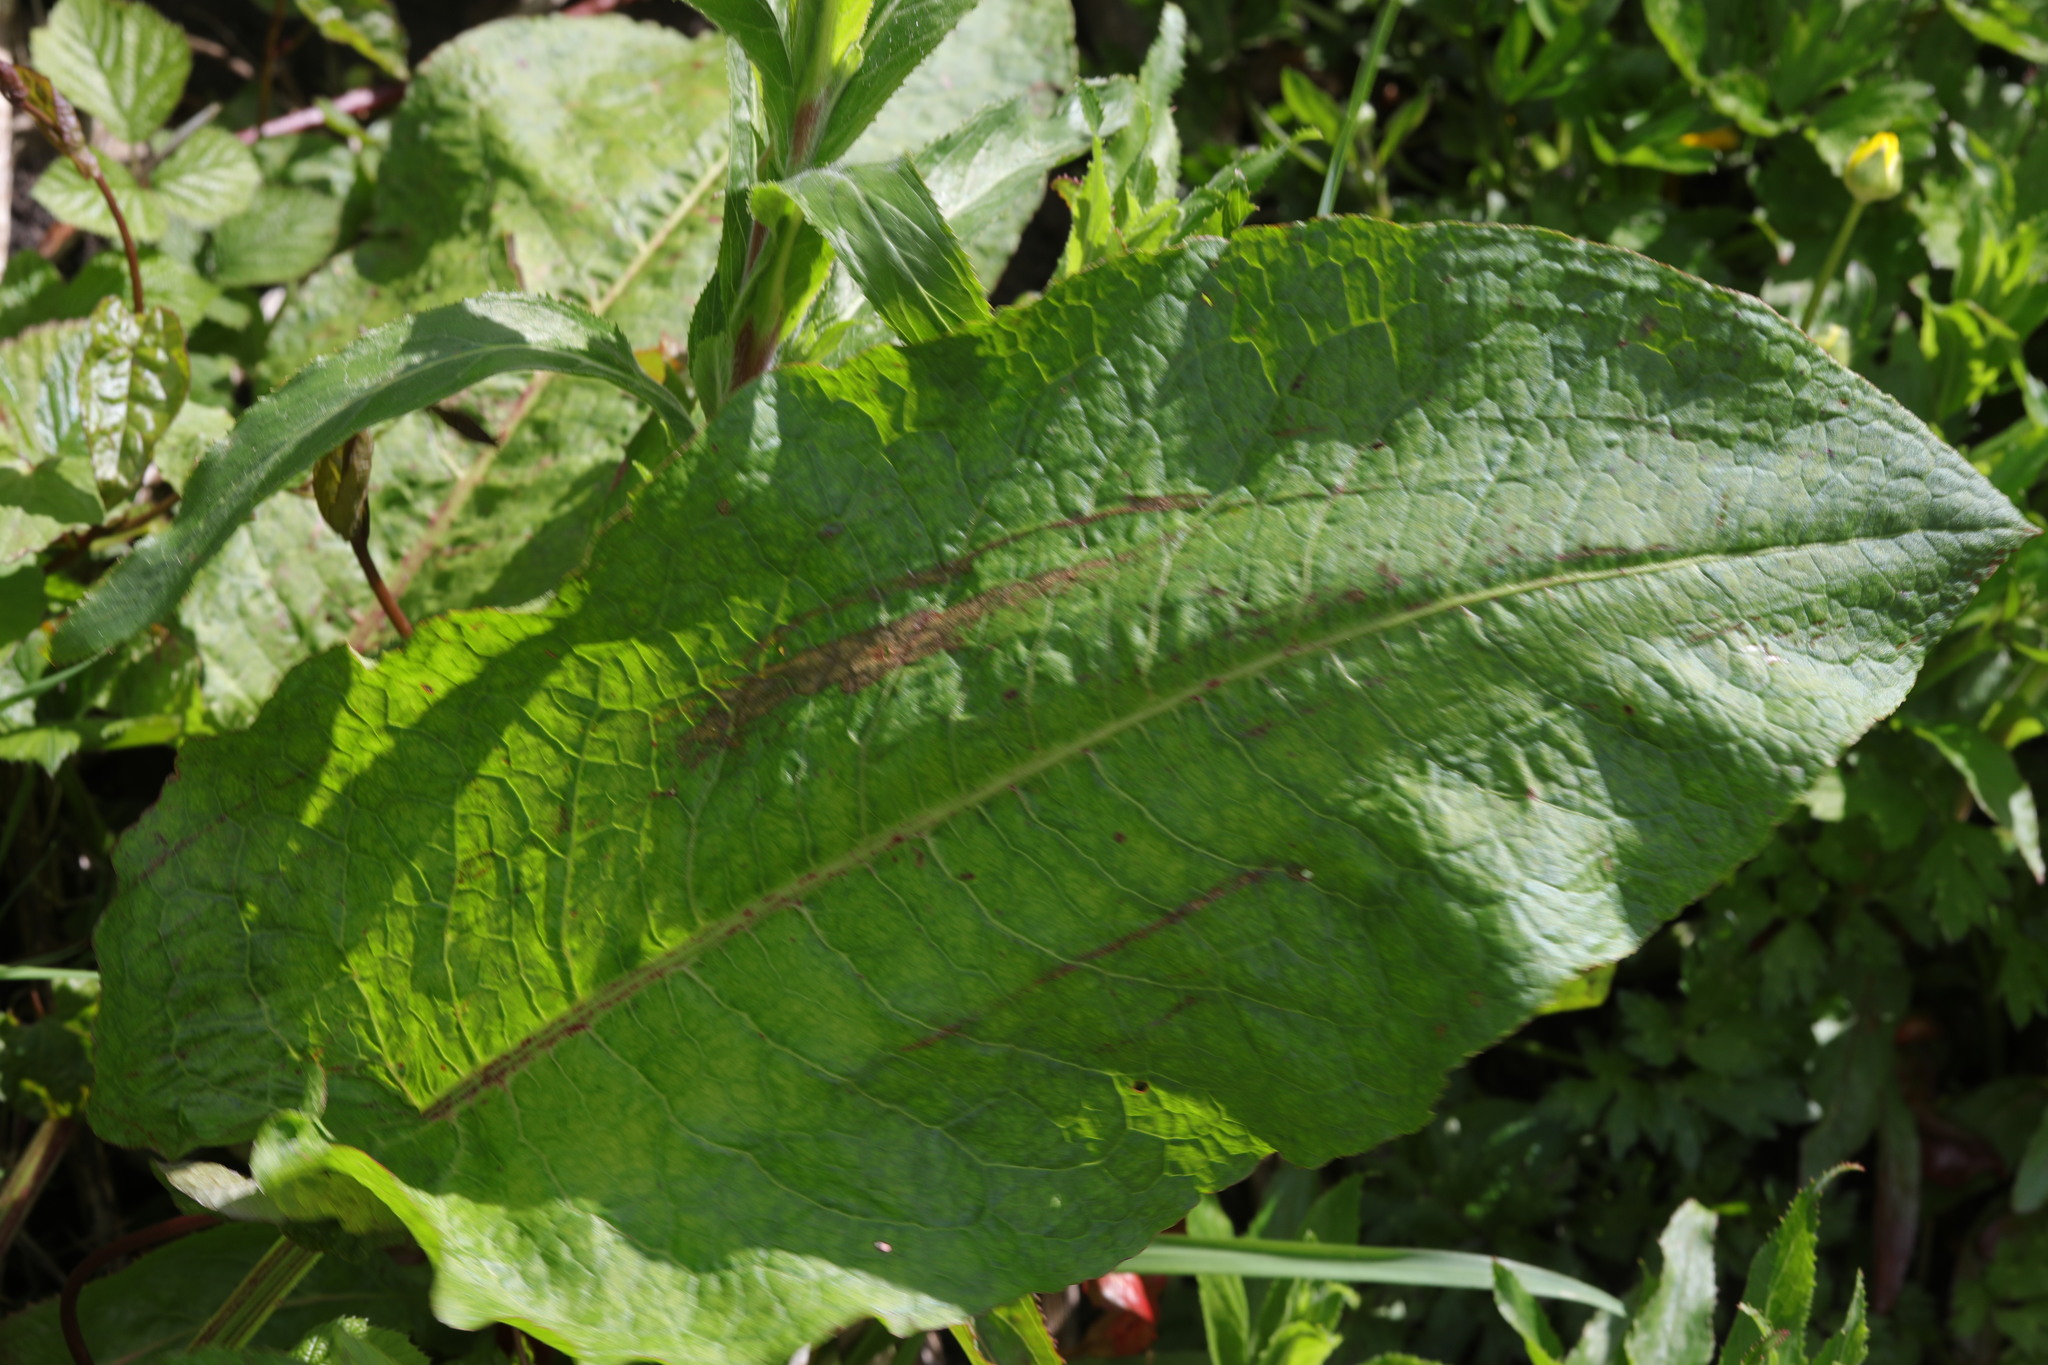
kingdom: Plantae
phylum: Tracheophyta
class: Magnoliopsida
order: Caryophyllales
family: Polygonaceae
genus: Rumex
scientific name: Rumex obtusifolius
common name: Bitter dock
